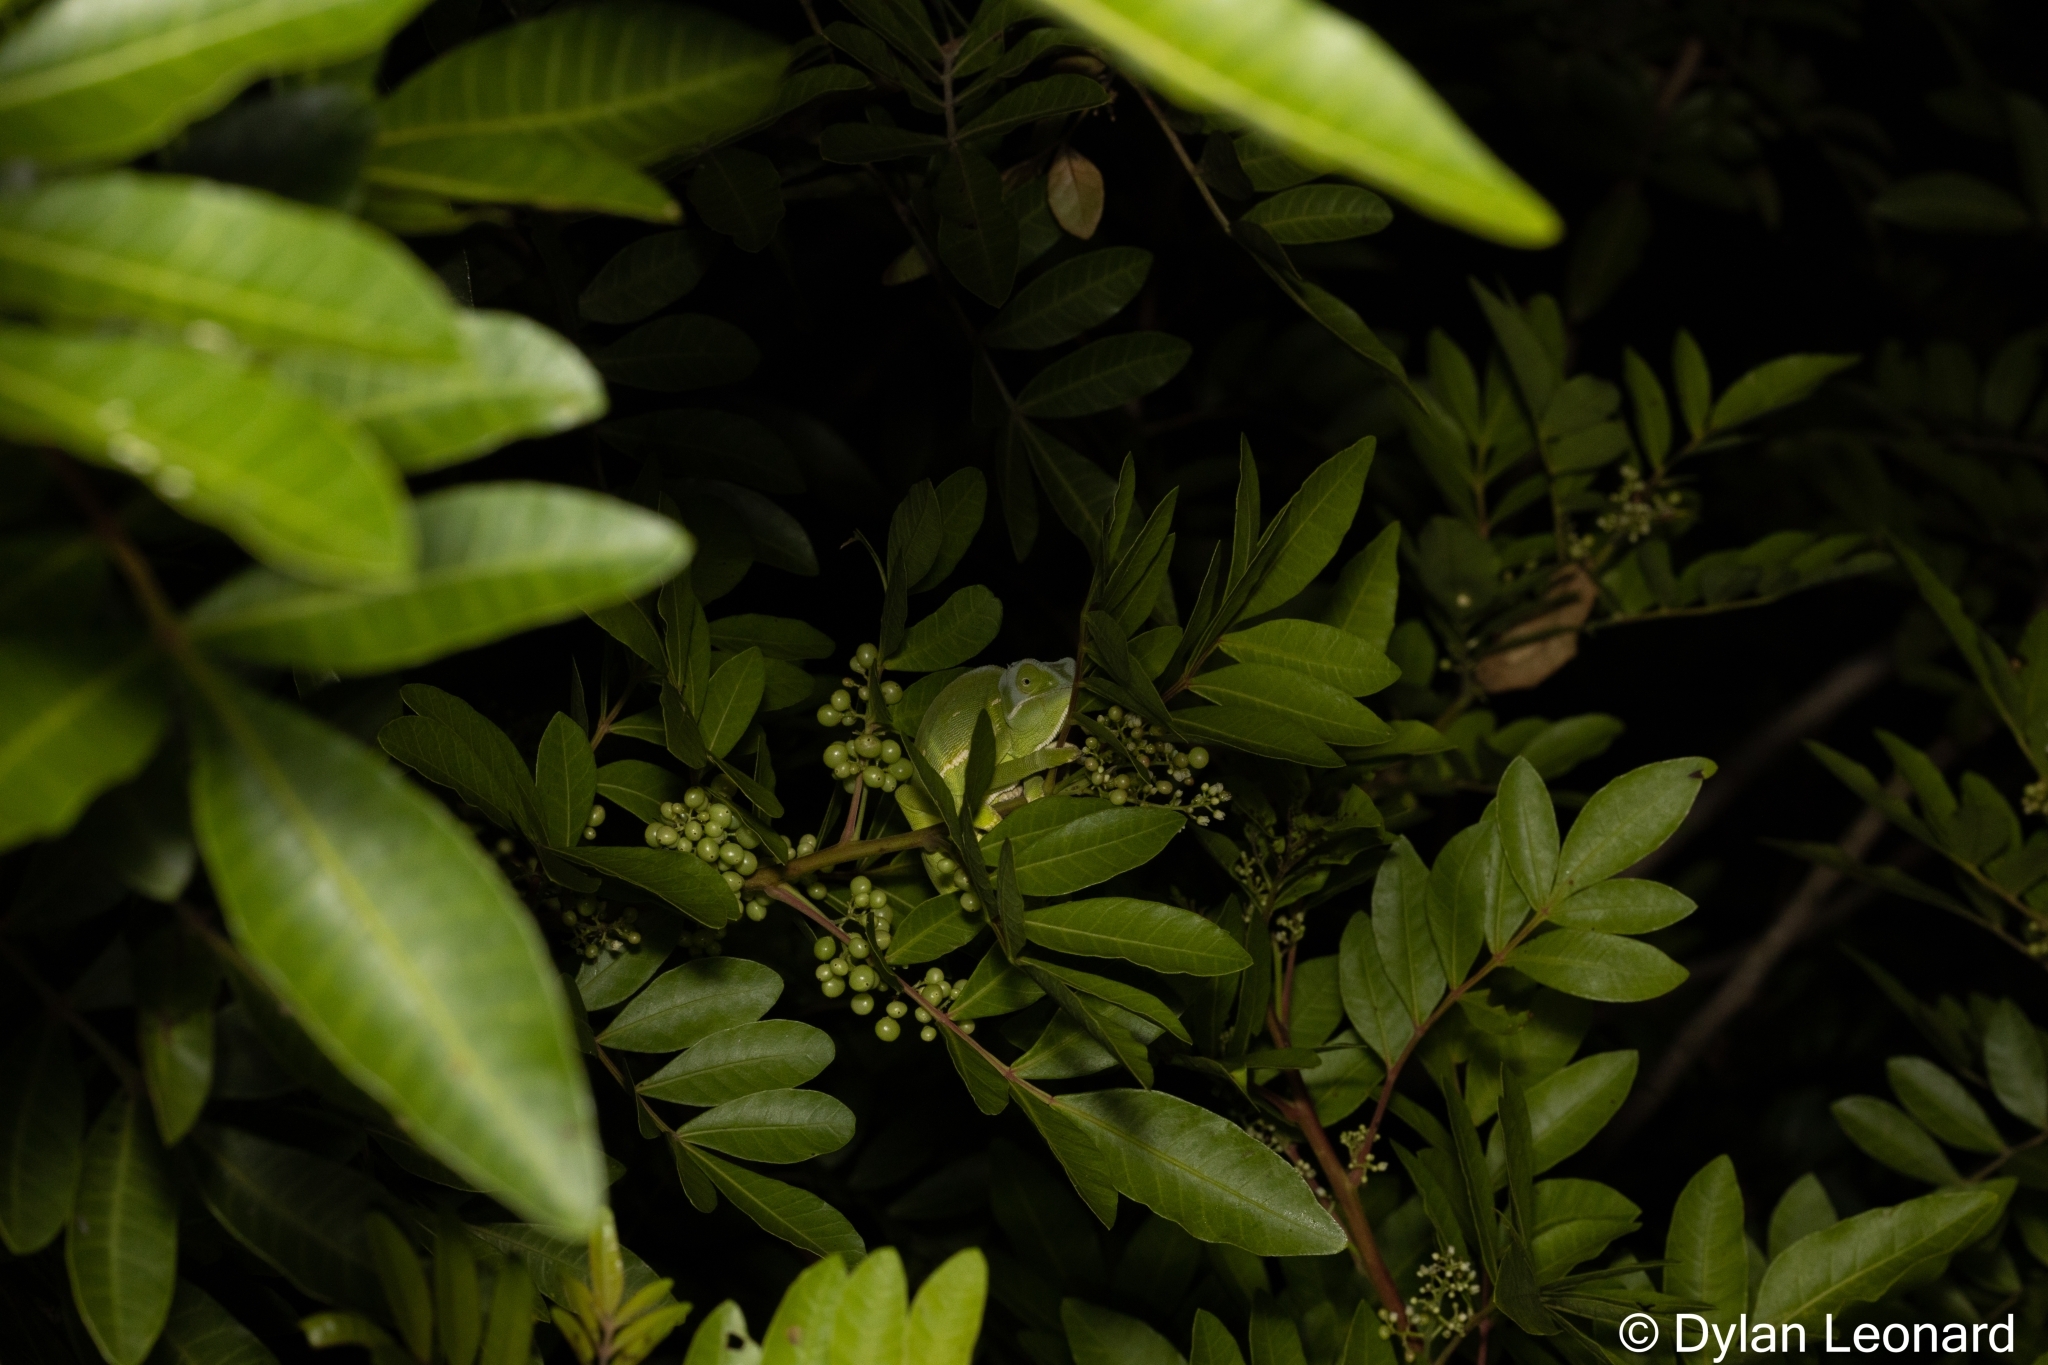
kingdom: Animalia
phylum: Chordata
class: Squamata
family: Chamaeleonidae
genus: Chamaeleo
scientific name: Chamaeleo dilepis
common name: Flapneck chameleon
